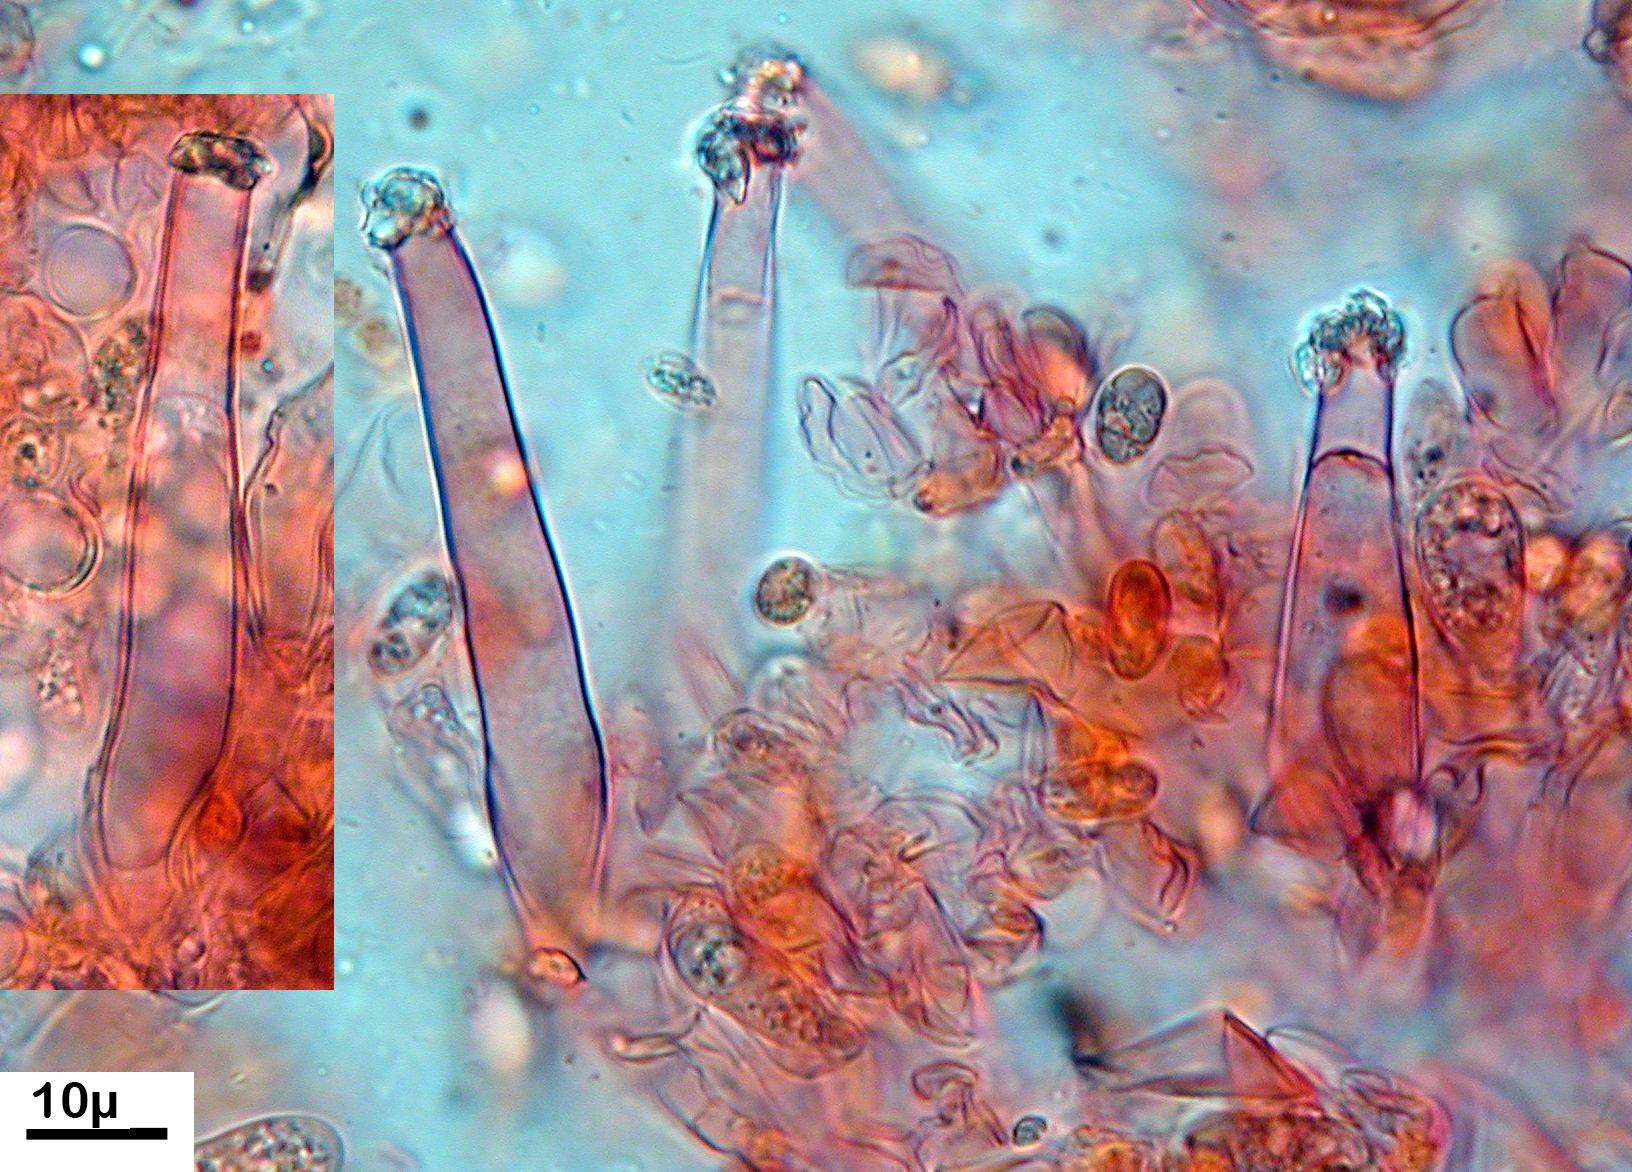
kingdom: Fungi
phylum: Basidiomycota
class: Agaricomycetes
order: Hymenochaetales
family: Rickenellaceae
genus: Peniophorella
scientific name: Peniophorella praetermissa
